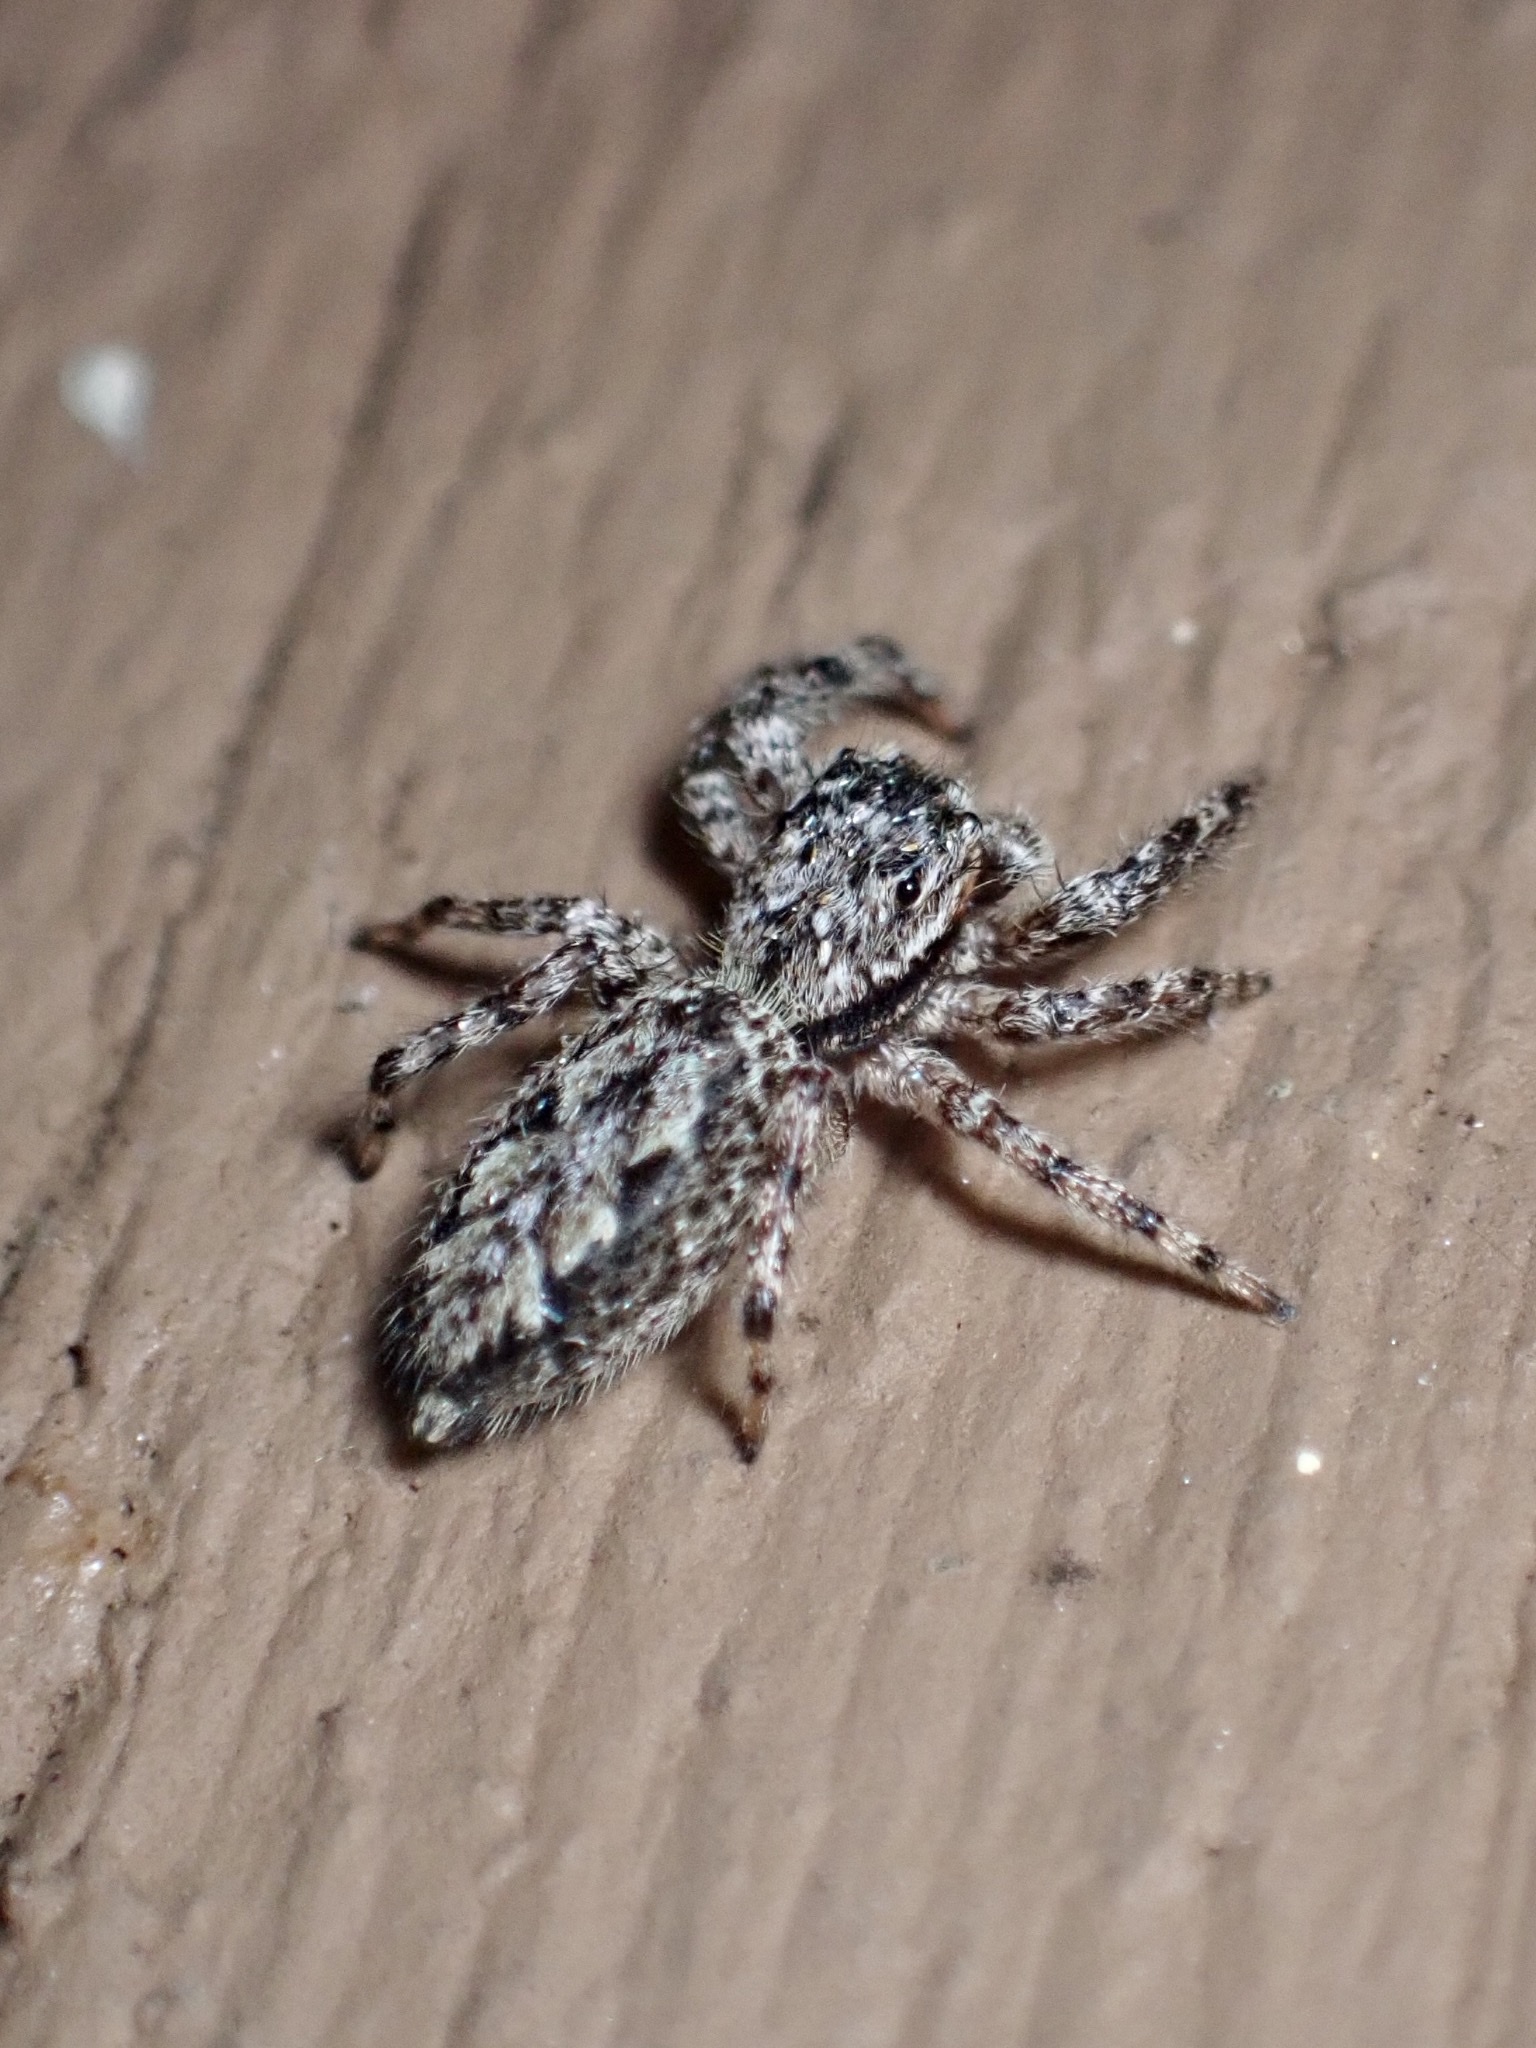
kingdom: Animalia
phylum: Arthropoda
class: Arachnida
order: Araneae
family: Salticidae
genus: Platycryptus
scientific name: Platycryptus undatus
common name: Tan jumping spider
